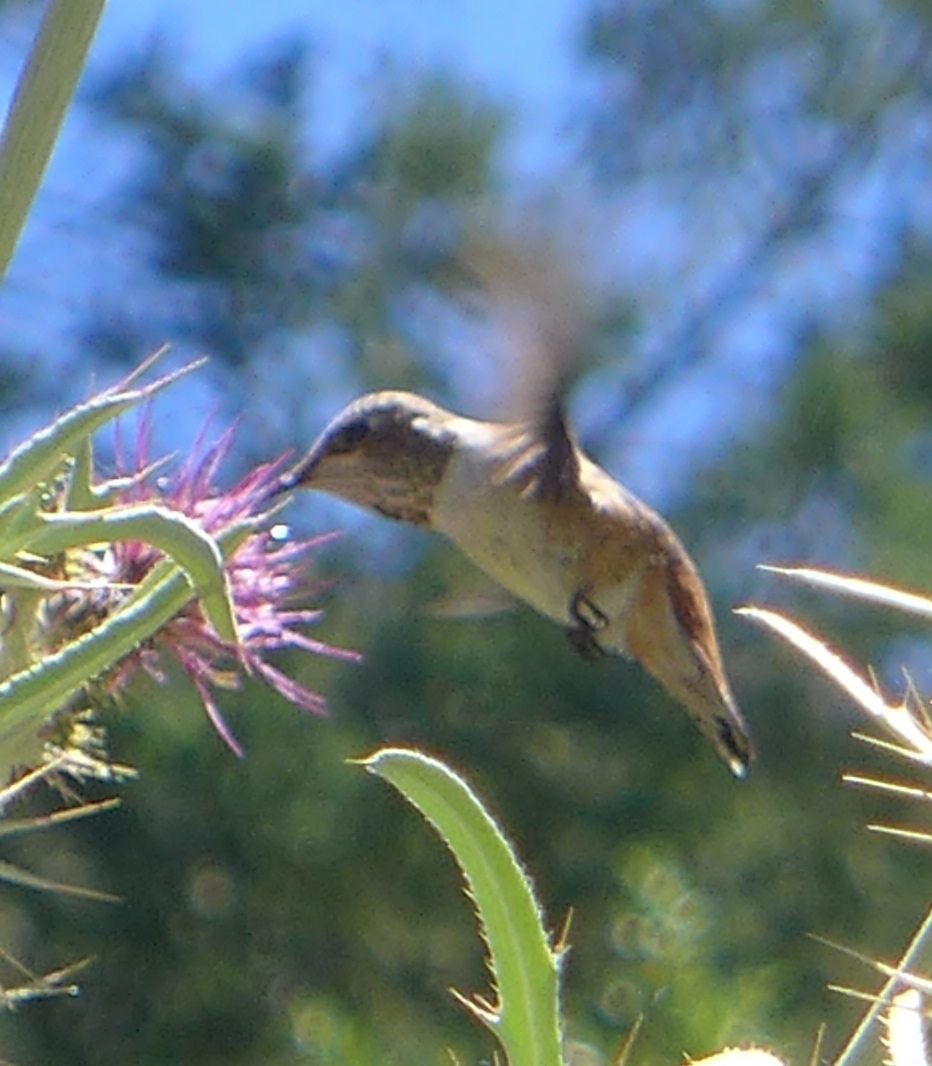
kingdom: Animalia
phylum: Chordata
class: Aves
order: Apodiformes
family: Trochilidae
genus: Selasphorus
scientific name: Selasphorus sasin
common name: Allen's hummingbird
